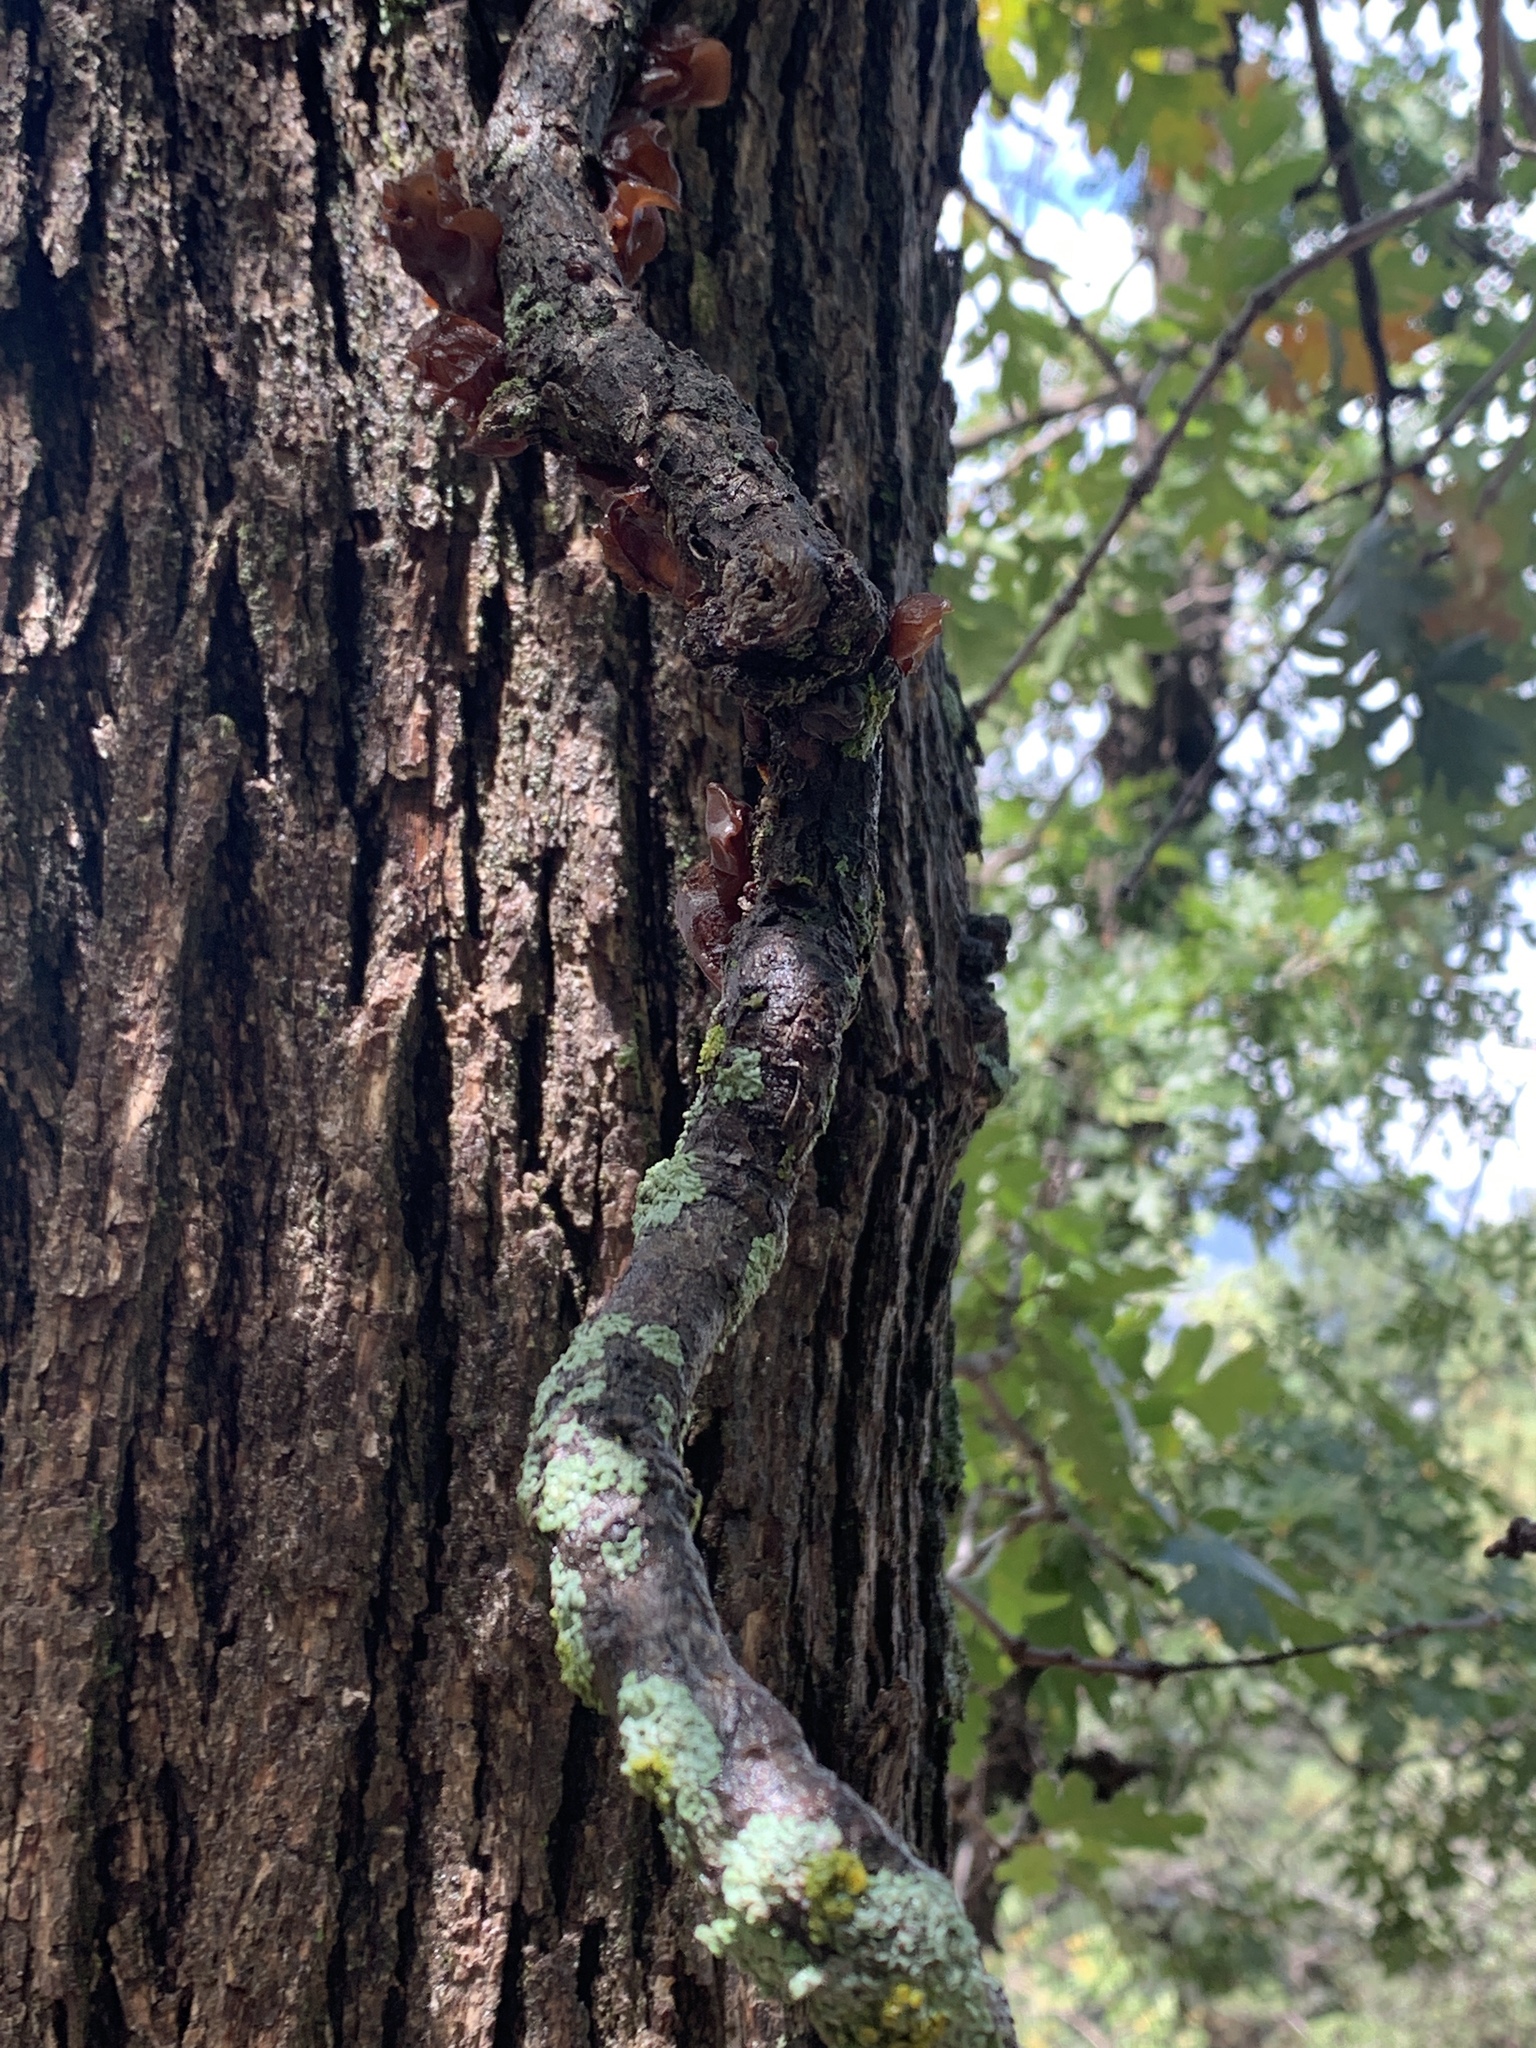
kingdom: Fungi
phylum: Basidiomycota
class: Agaricomycetes
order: Auriculariales
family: Auriculariaceae
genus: Auricularia
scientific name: Auricularia angiospermarum
